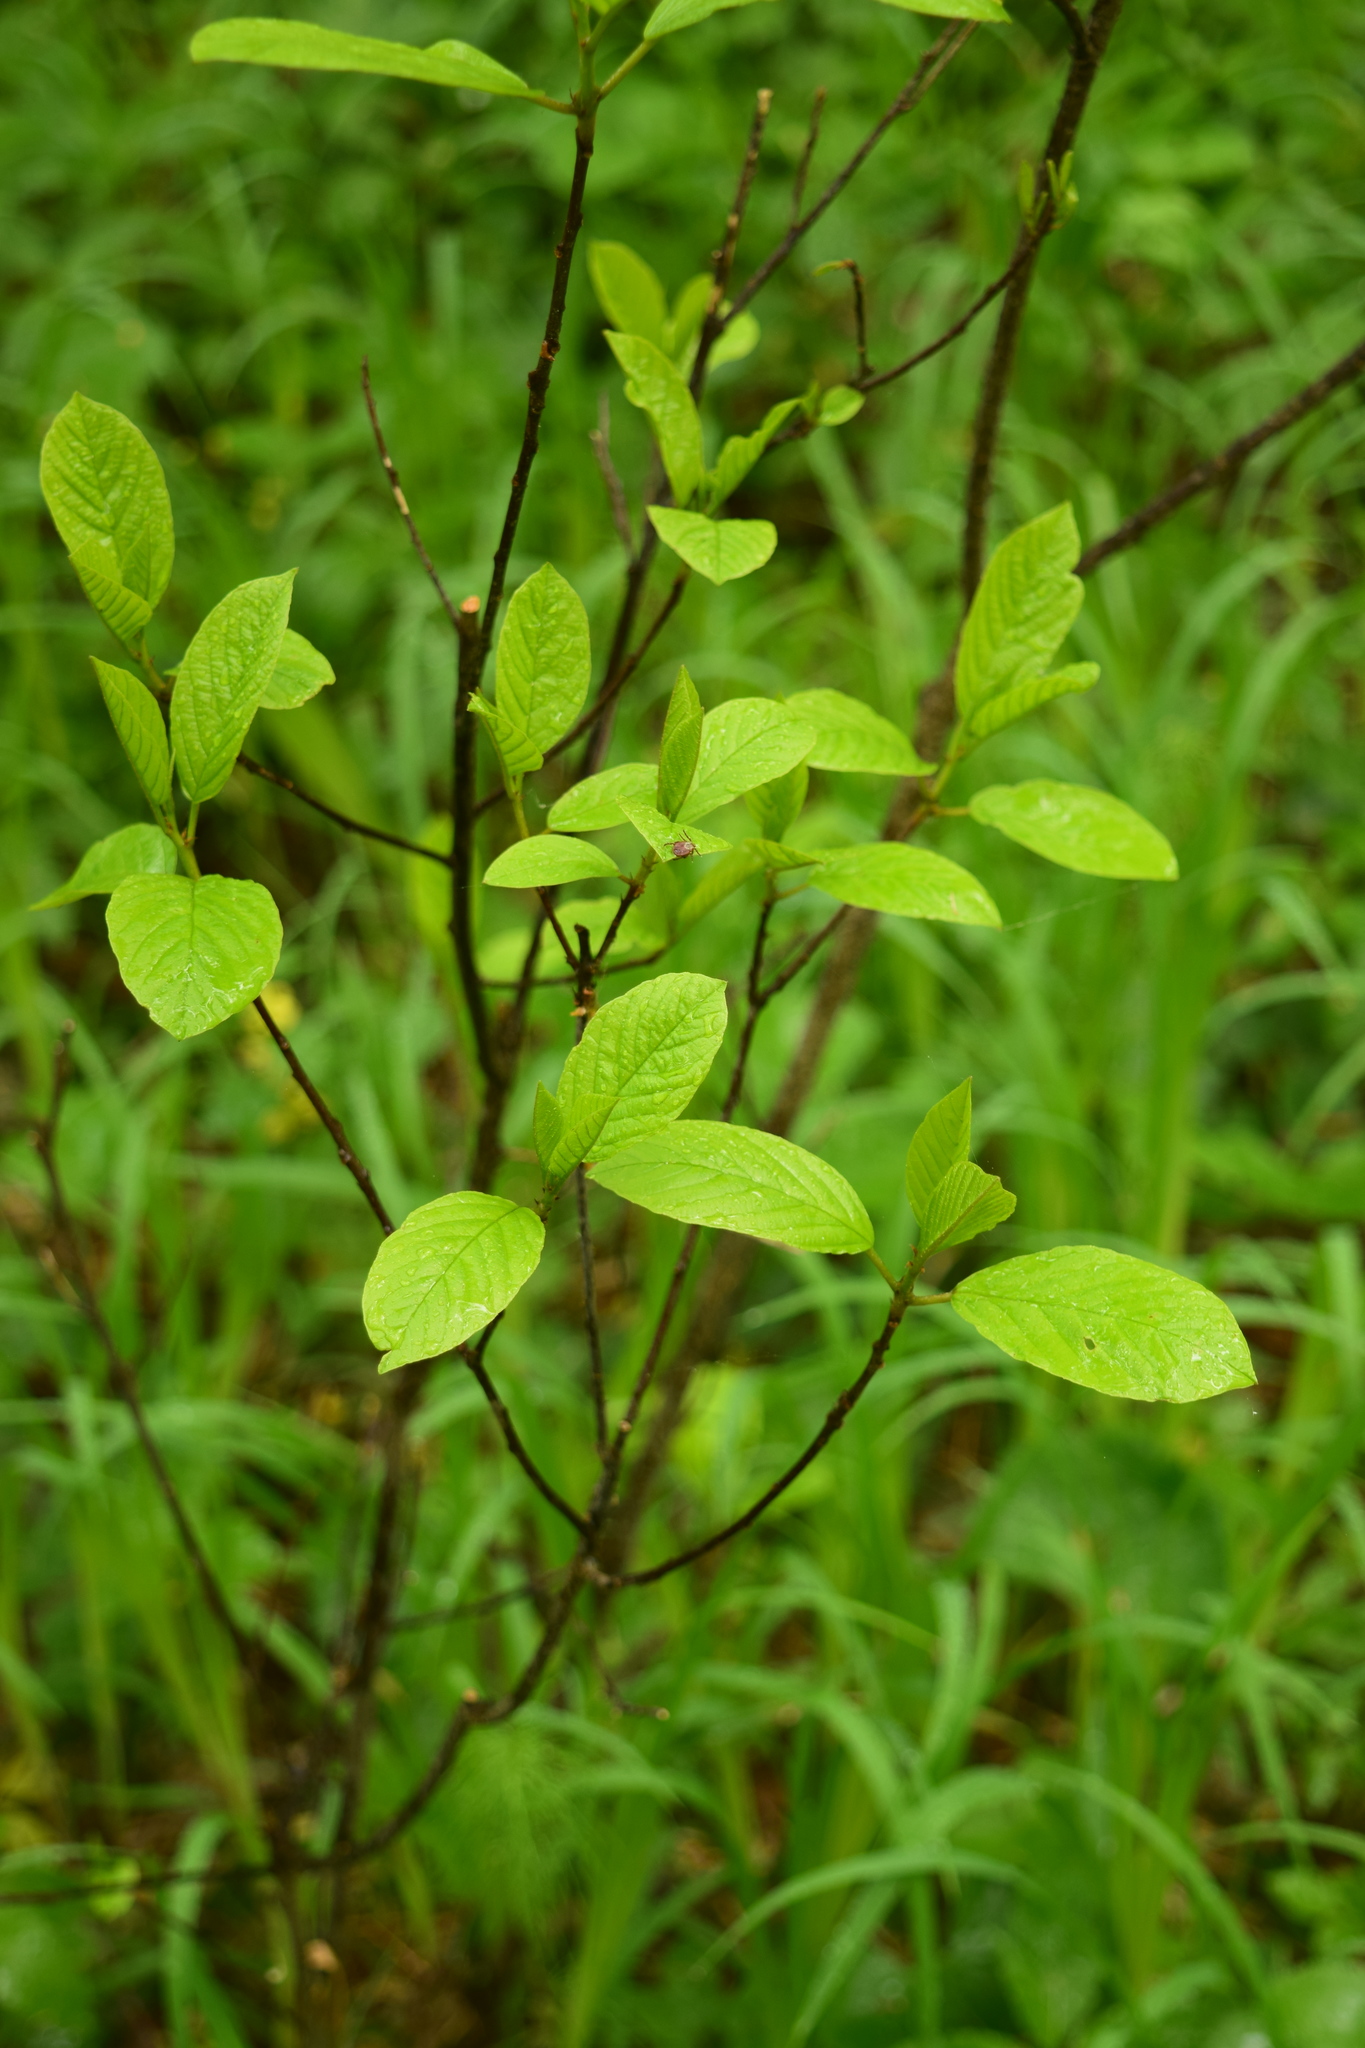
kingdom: Plantae
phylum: Tracheophyta
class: Magnoliopsida
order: Rosales
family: Rhamnaceae
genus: Frangula
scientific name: Frangula alnus
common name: Alder buckthorn
